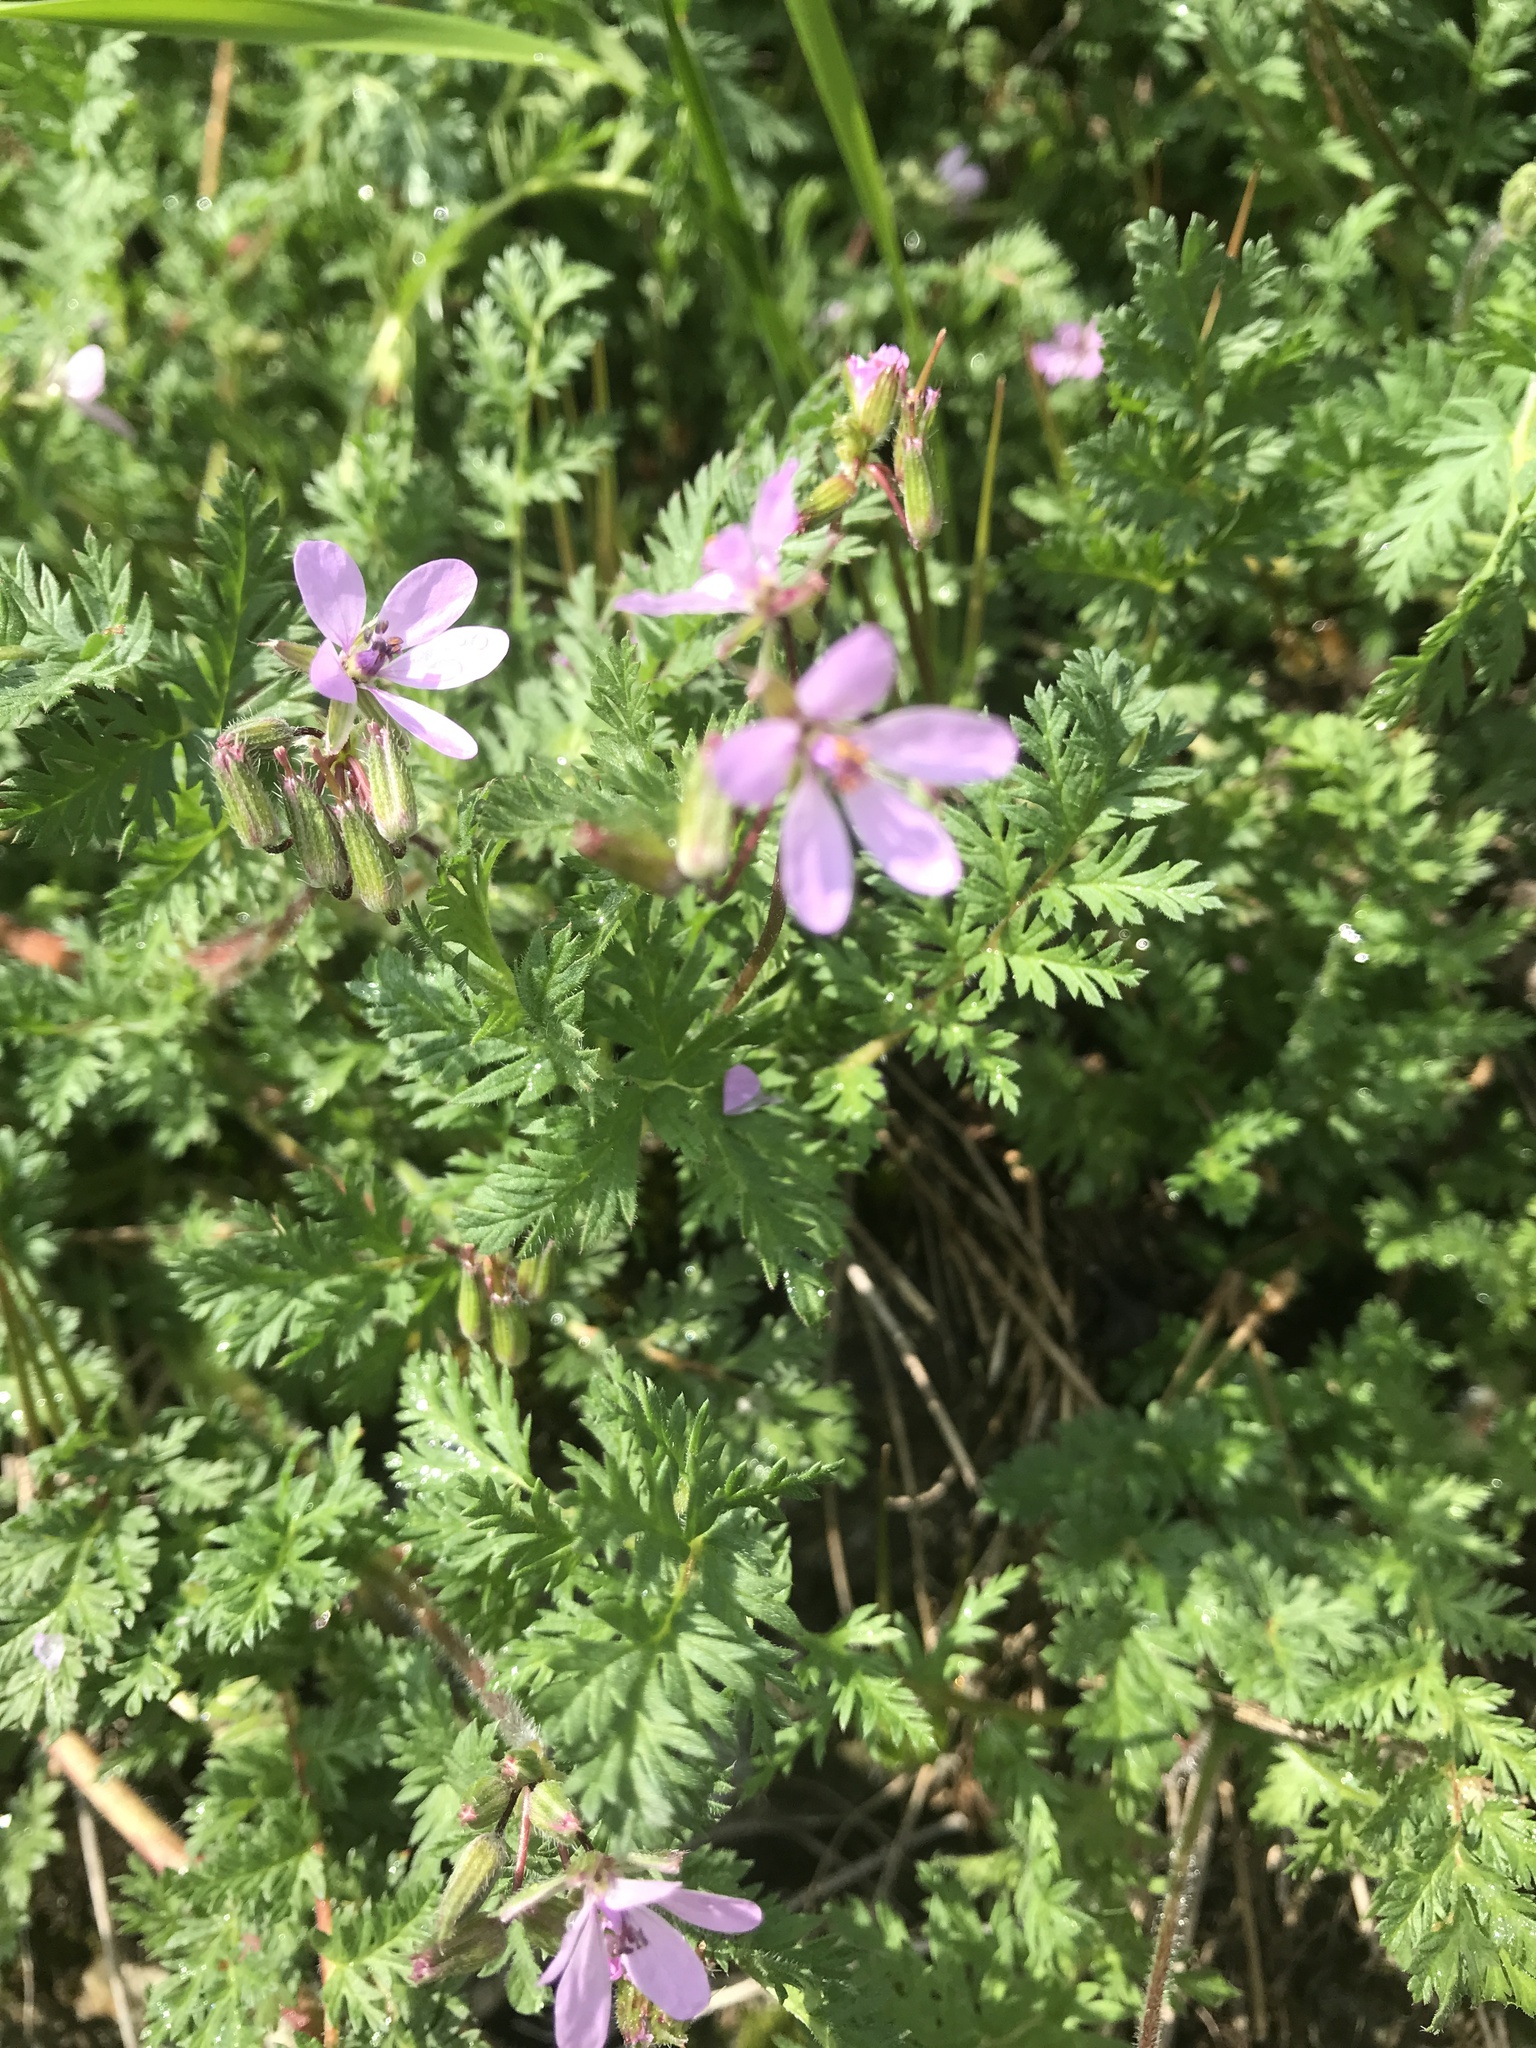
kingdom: Plantae
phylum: Tracheophyta
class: Magnoliopsida
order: Geraniales
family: Geraniaceae
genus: Erodium
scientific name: Erodium cicutarium
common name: Common stork's-bill
